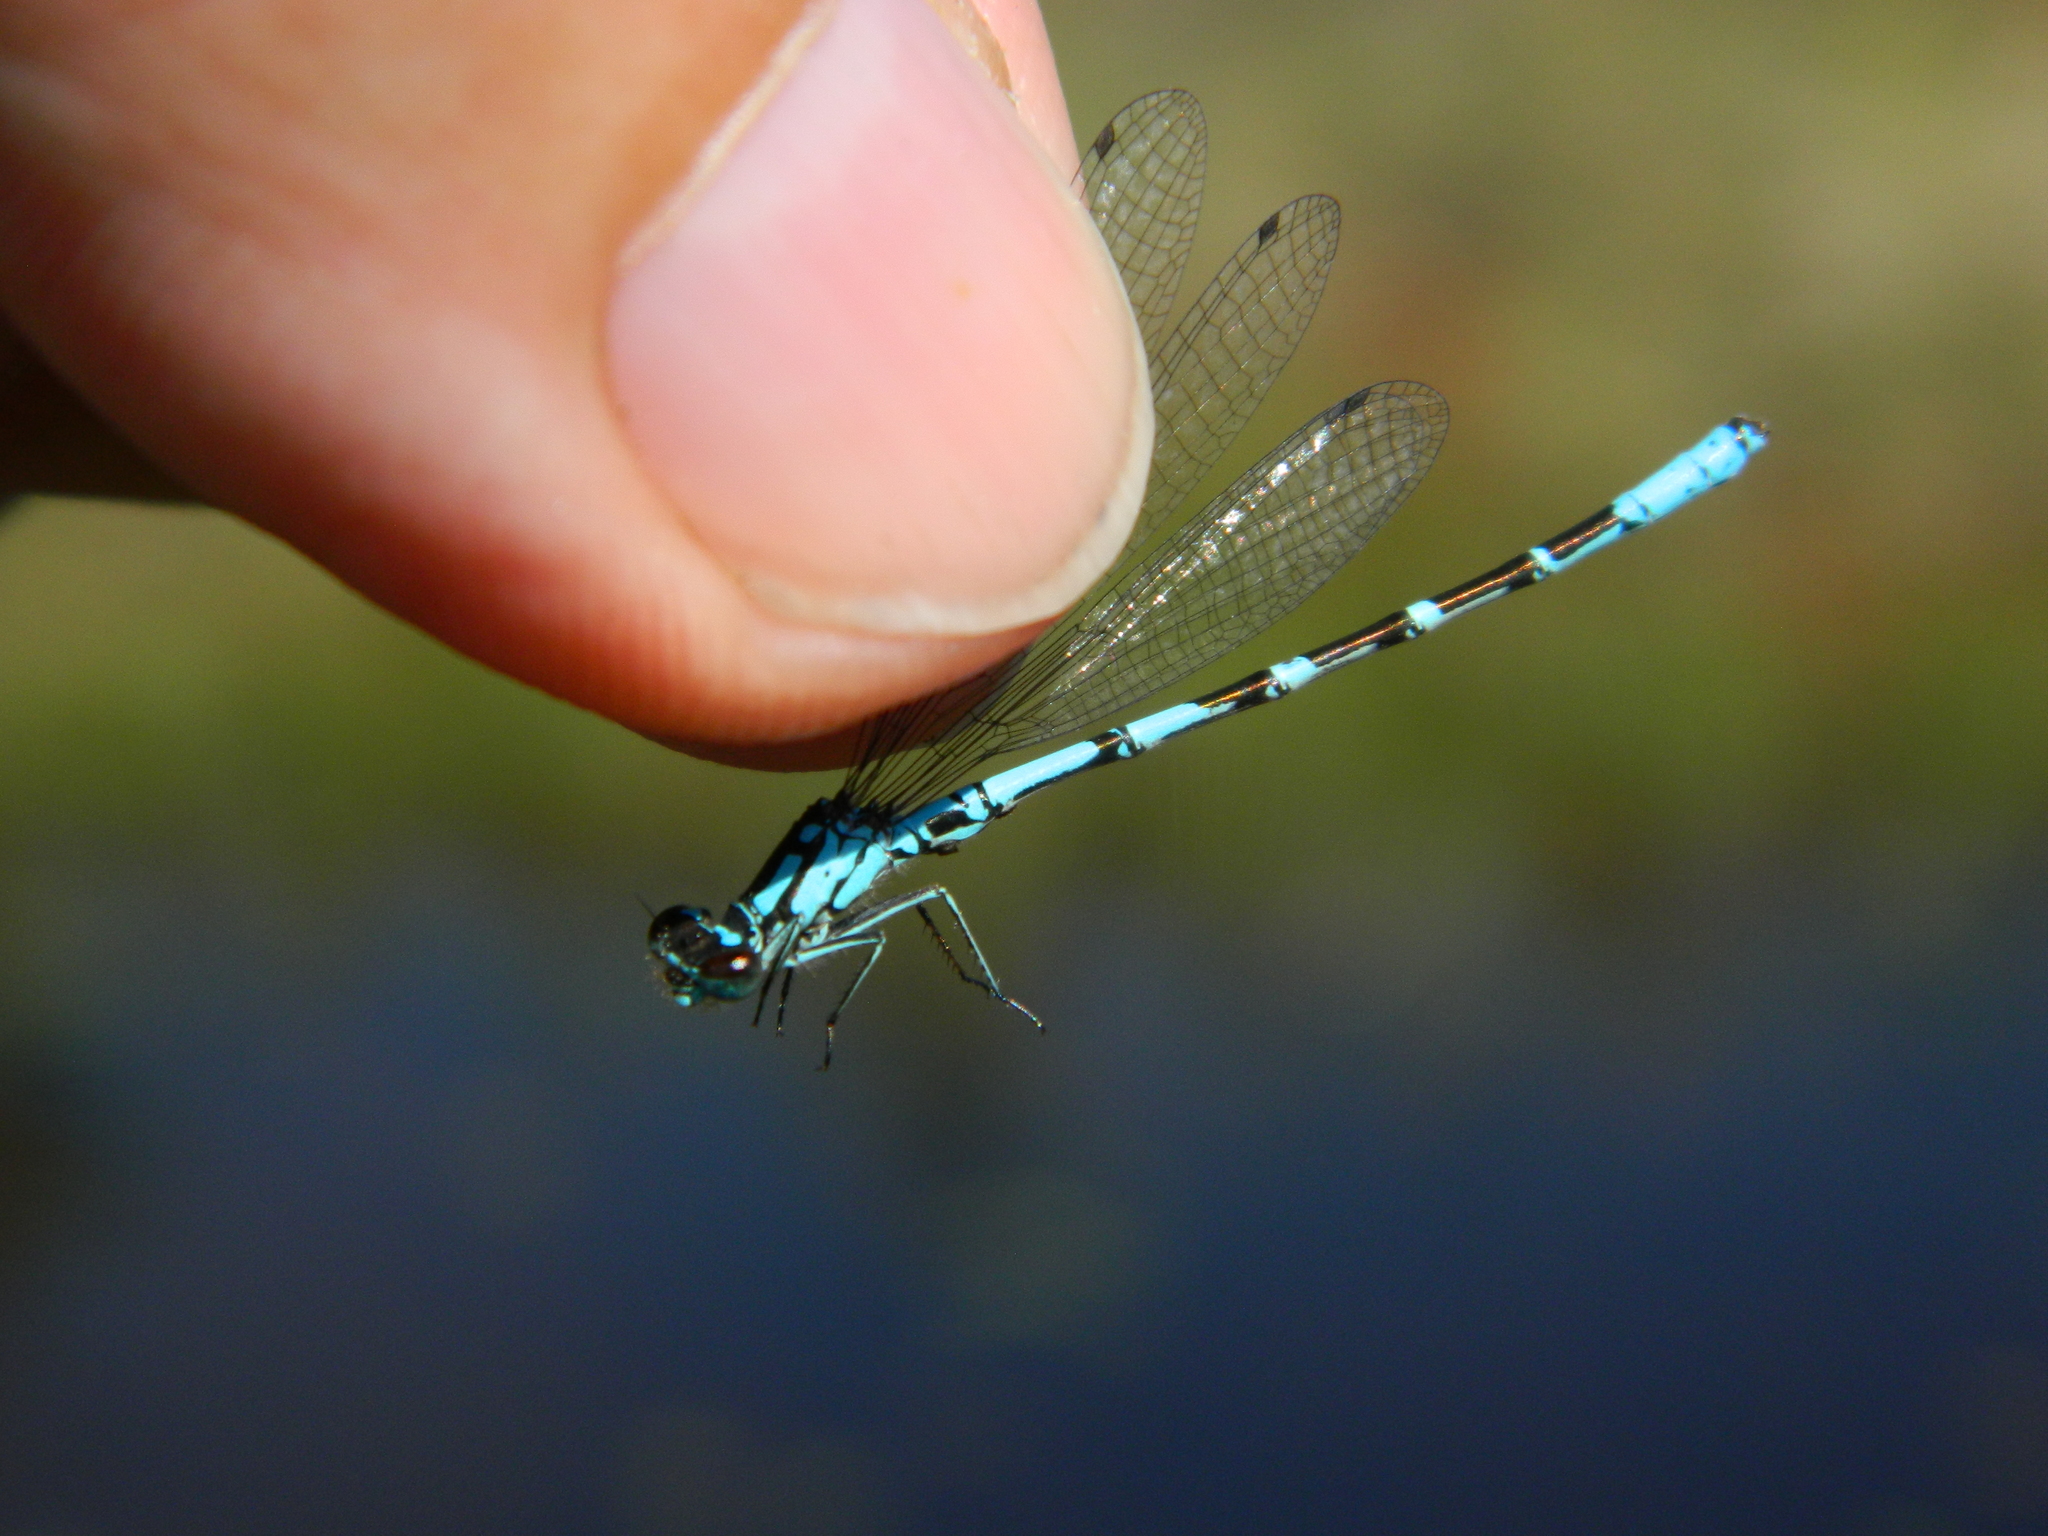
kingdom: Animalia
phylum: Arthropoda
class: Insecta
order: Odonata
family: Coenagrionidae
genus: Coenagrion
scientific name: Coenagrion interrogatum
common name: Subarctic bluet
